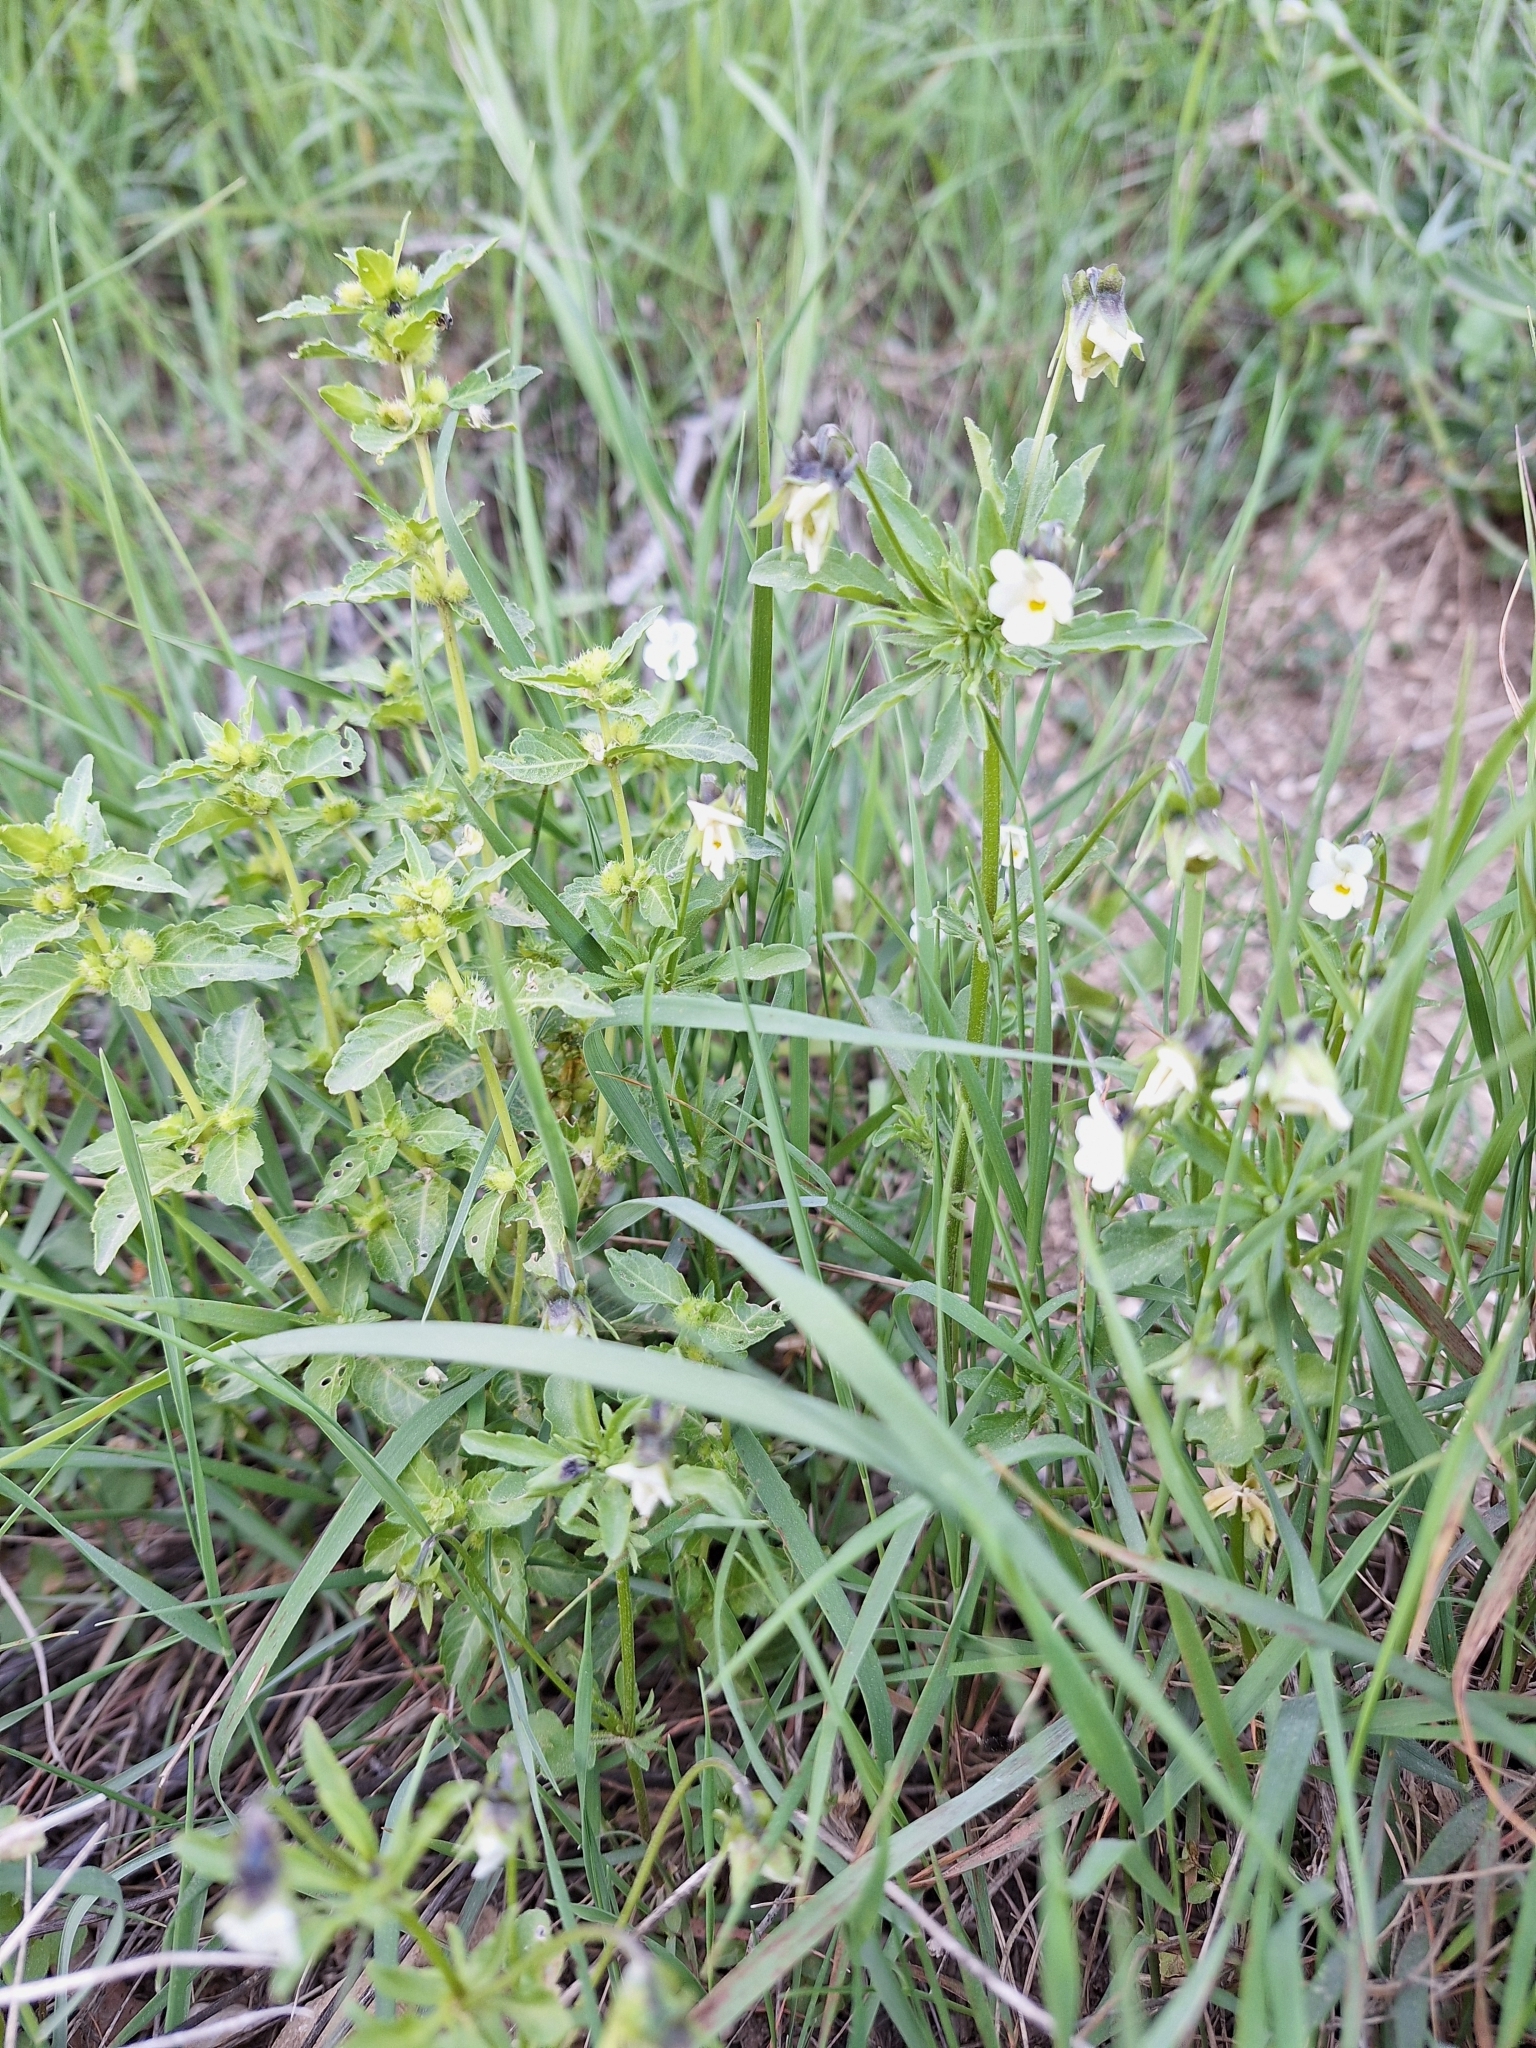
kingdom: Plantae
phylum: Tracheophyta
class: Magnoliopsida
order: Malpighiales
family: Violaceae
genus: Viola
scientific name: Viola arvensis
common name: Field pansy
